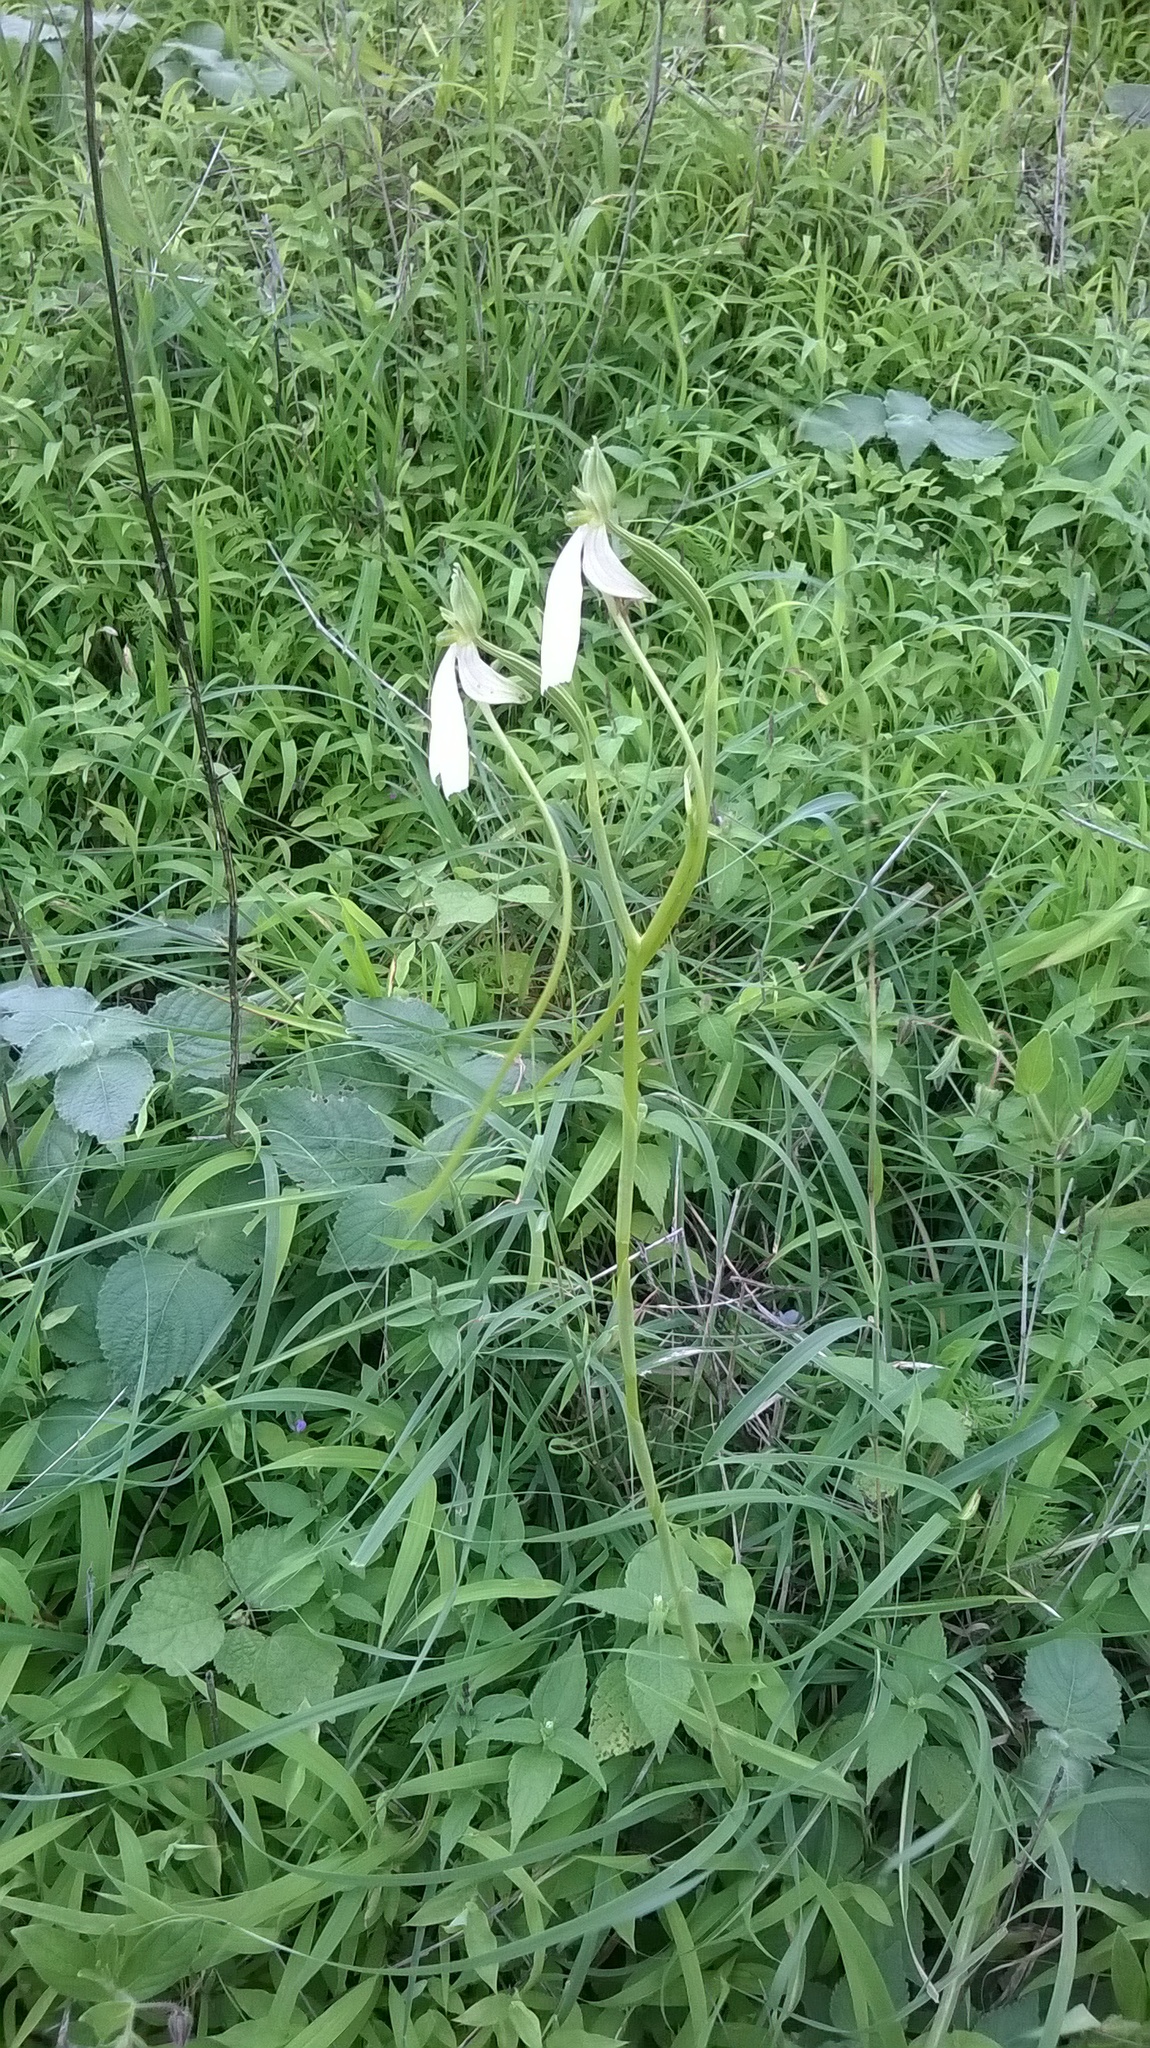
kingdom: Plantae
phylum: Tracheophyta
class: Liliopsida
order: Asparagales
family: Orchidaceae
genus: Habenaria
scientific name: Habenaria longicorniculata
